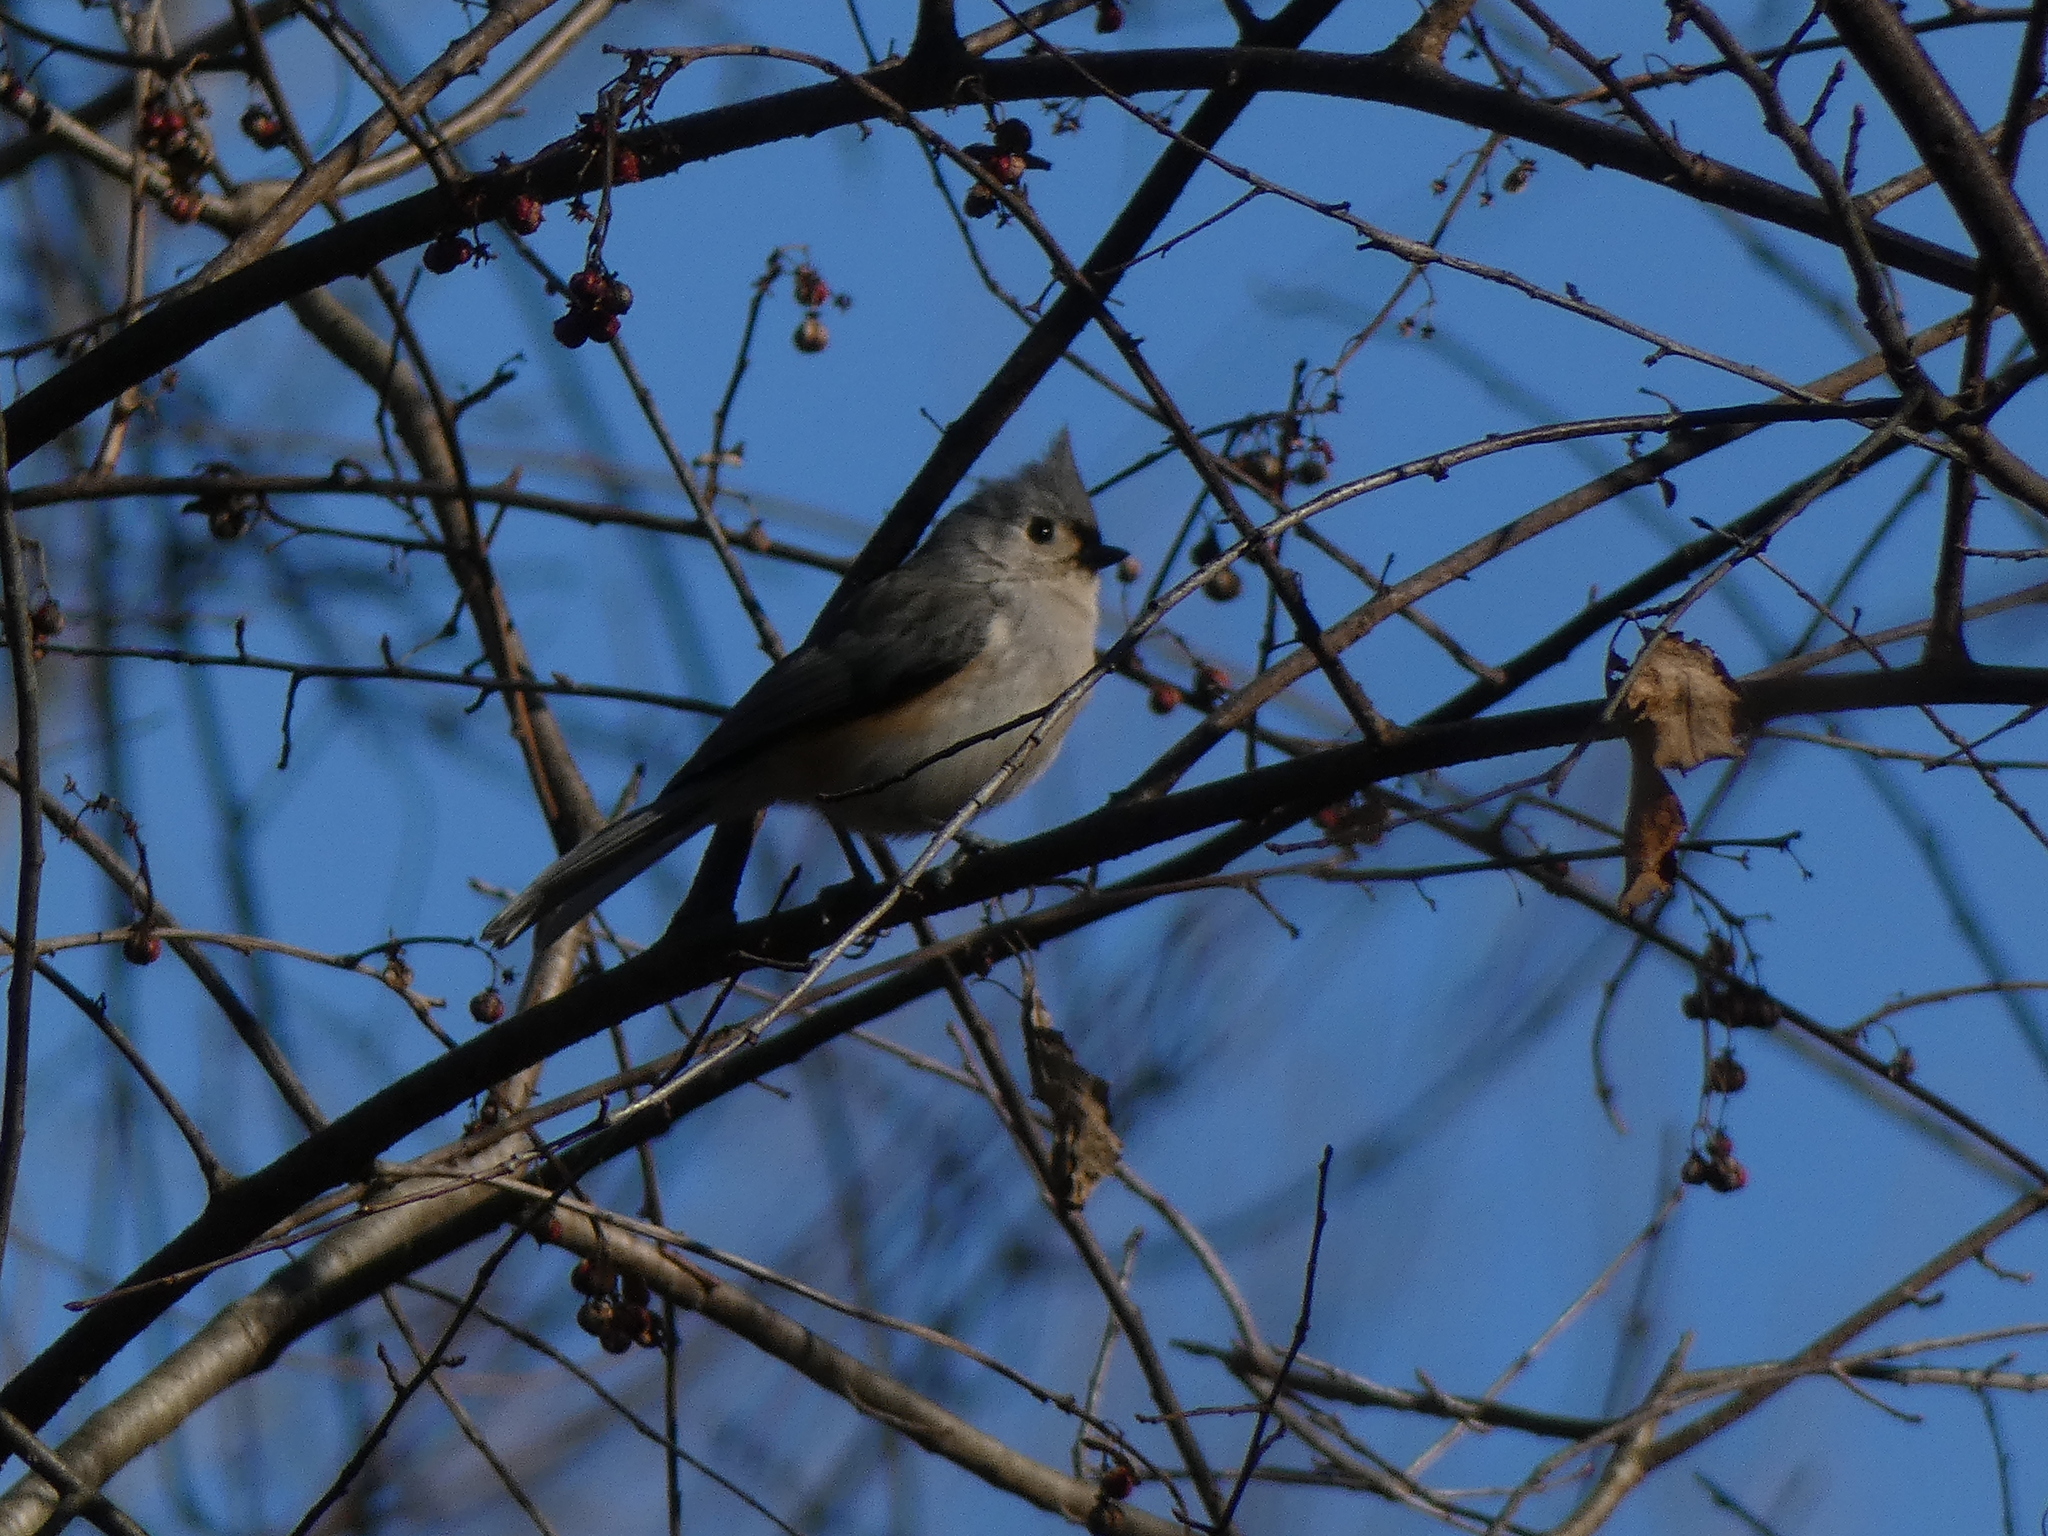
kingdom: Animalia
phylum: Chordata
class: Aves
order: Passeriformes
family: Paridae
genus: Baeolophus
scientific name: Baeolophus bicolor
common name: Tufted titmouse
